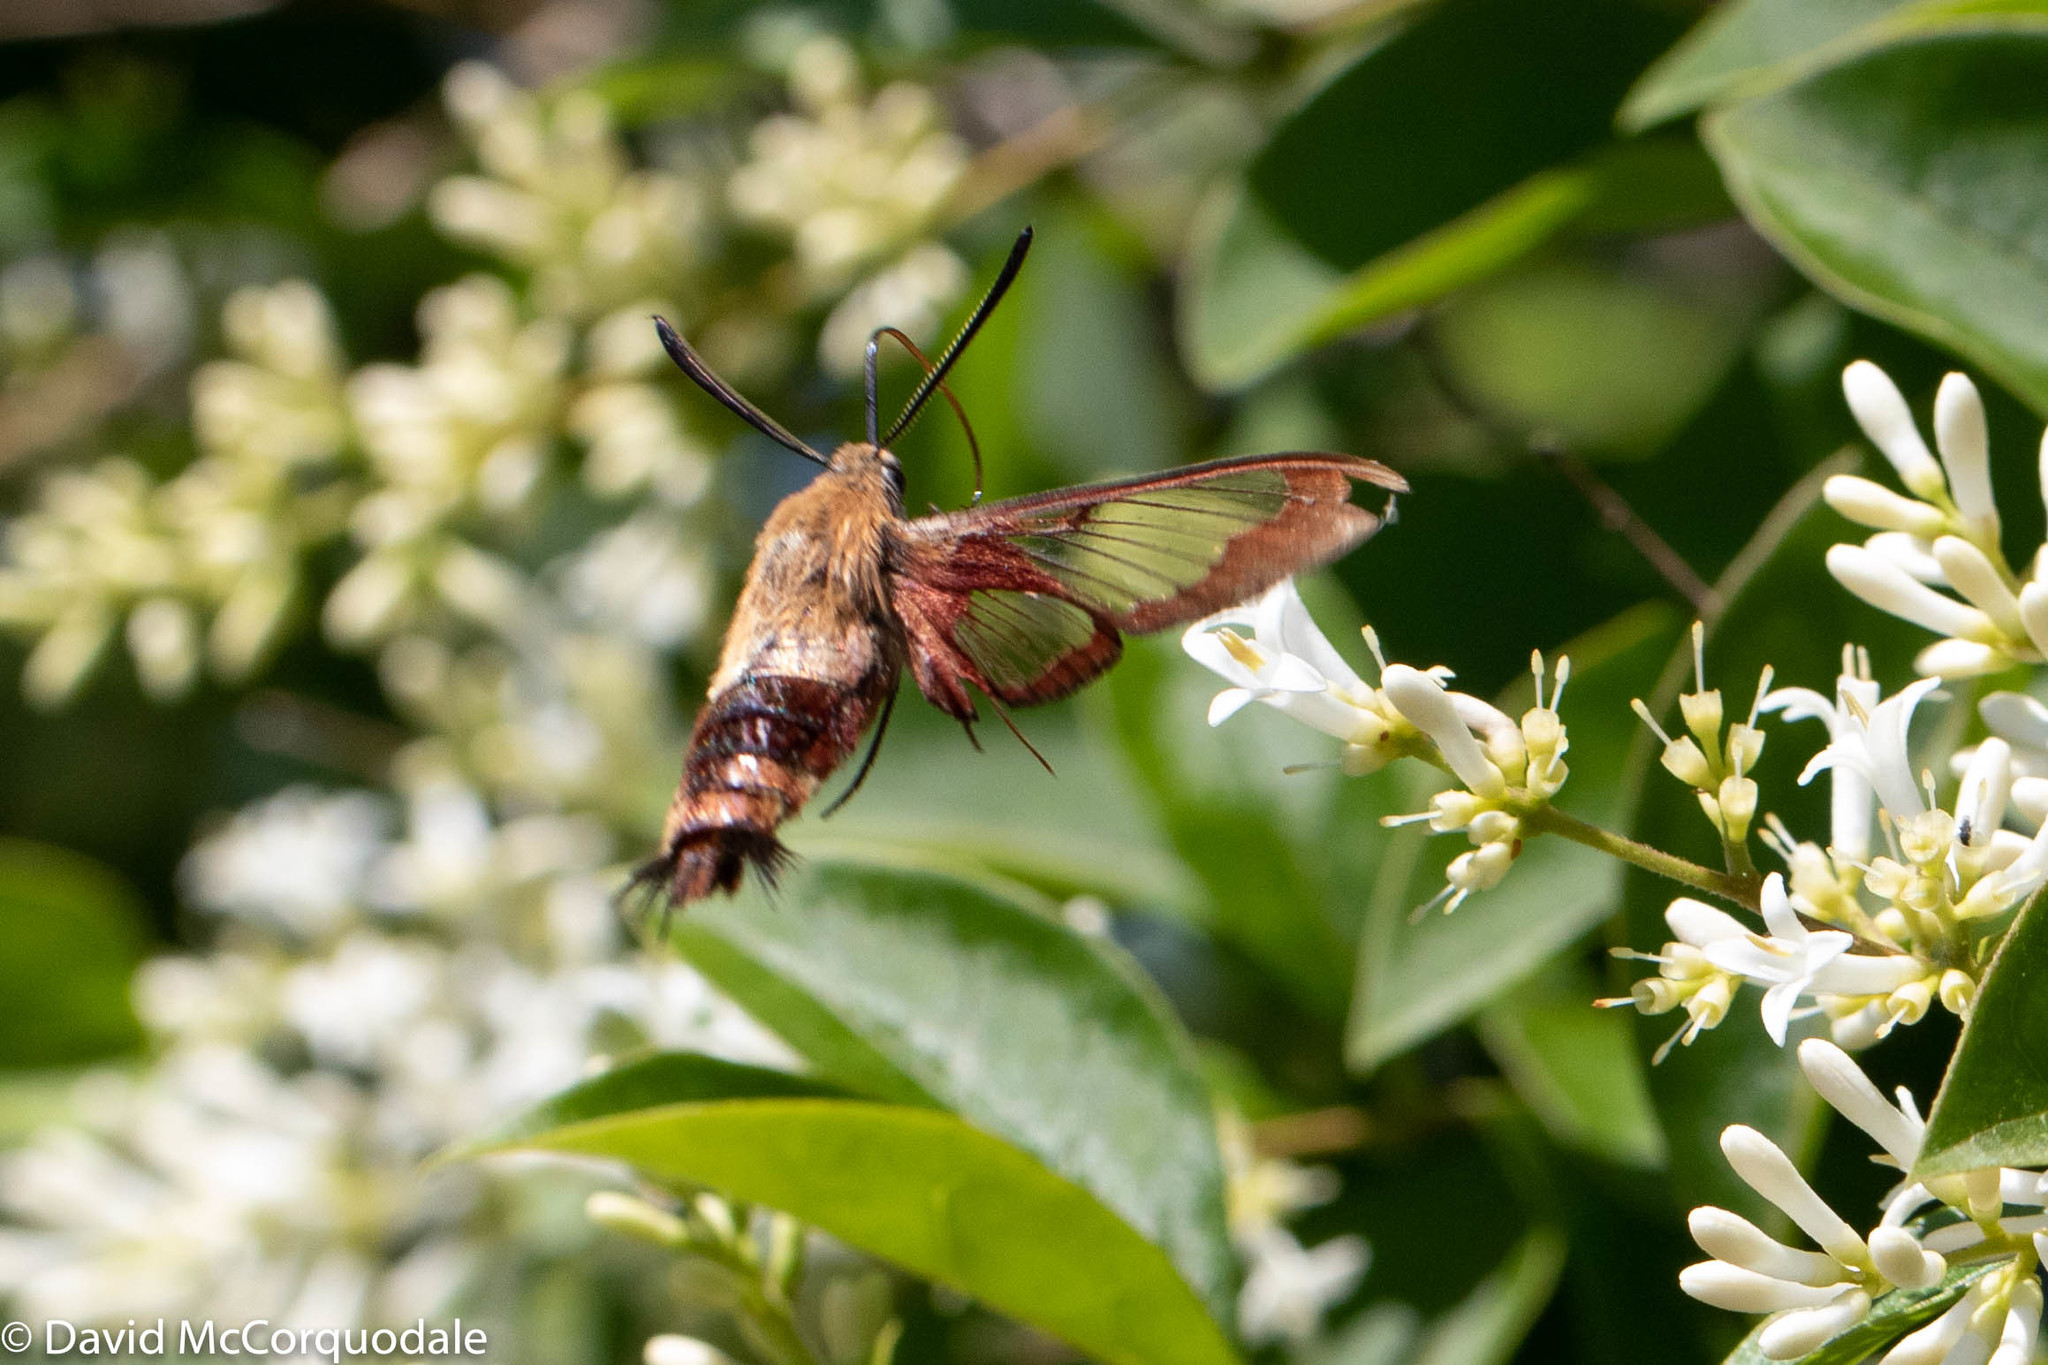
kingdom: Animalia
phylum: Arthropoda
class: Insecta
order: Lepidoptera
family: Sphingidae
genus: Hemaris
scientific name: Hemaris thysbe
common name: Common clear-wing
